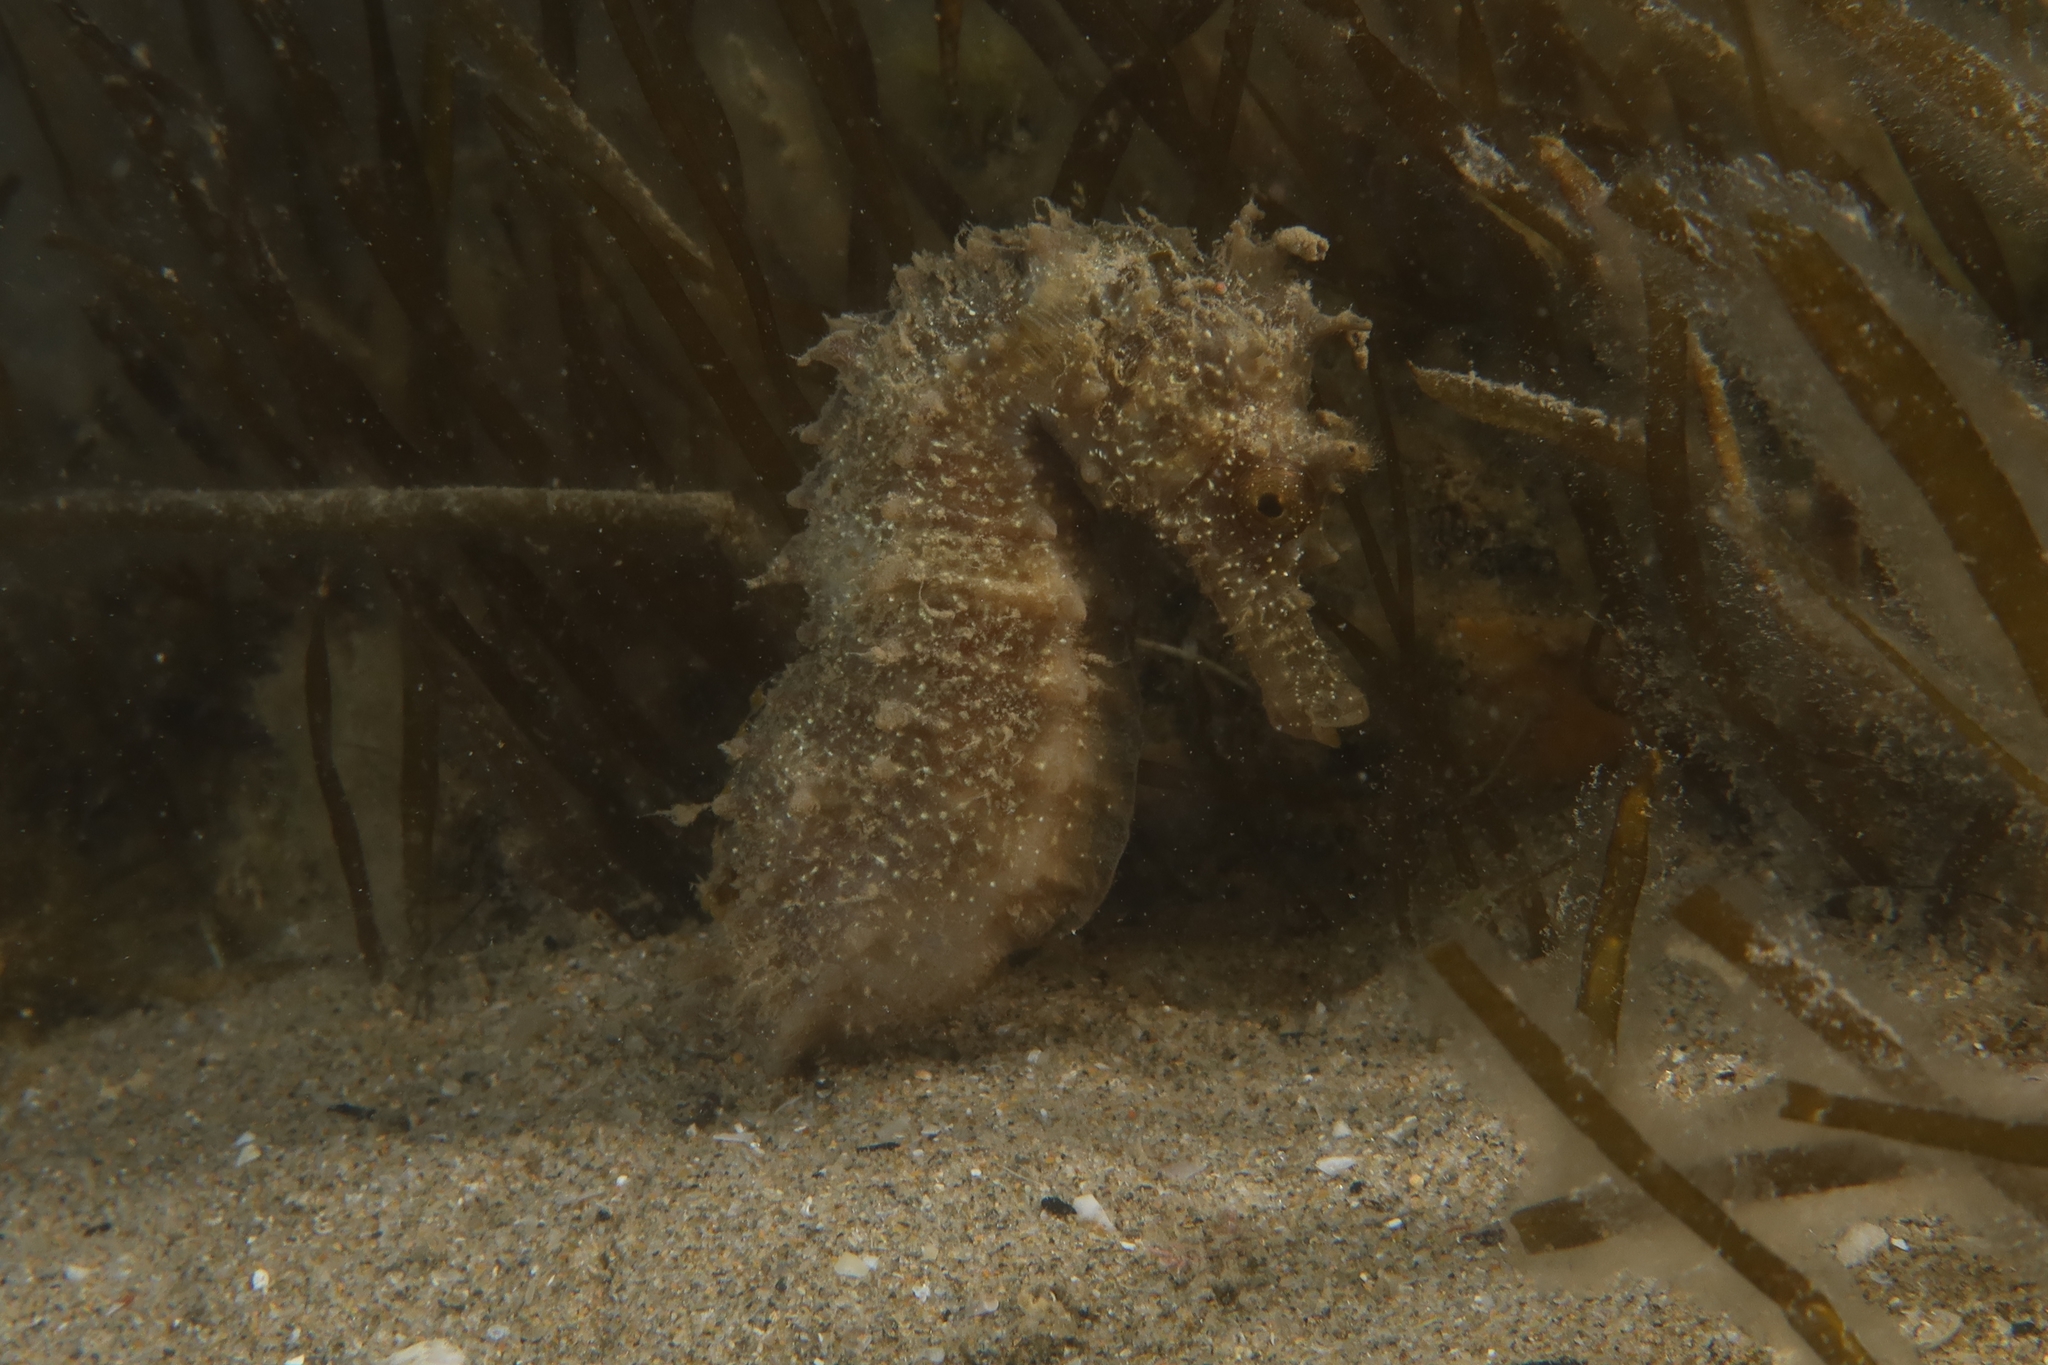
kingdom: Animalia
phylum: Chordata
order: Syngnathiformes
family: Syngnathidae
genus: Hippocampus
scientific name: Hippocampus guttulatus
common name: Long-snouted seahorse
